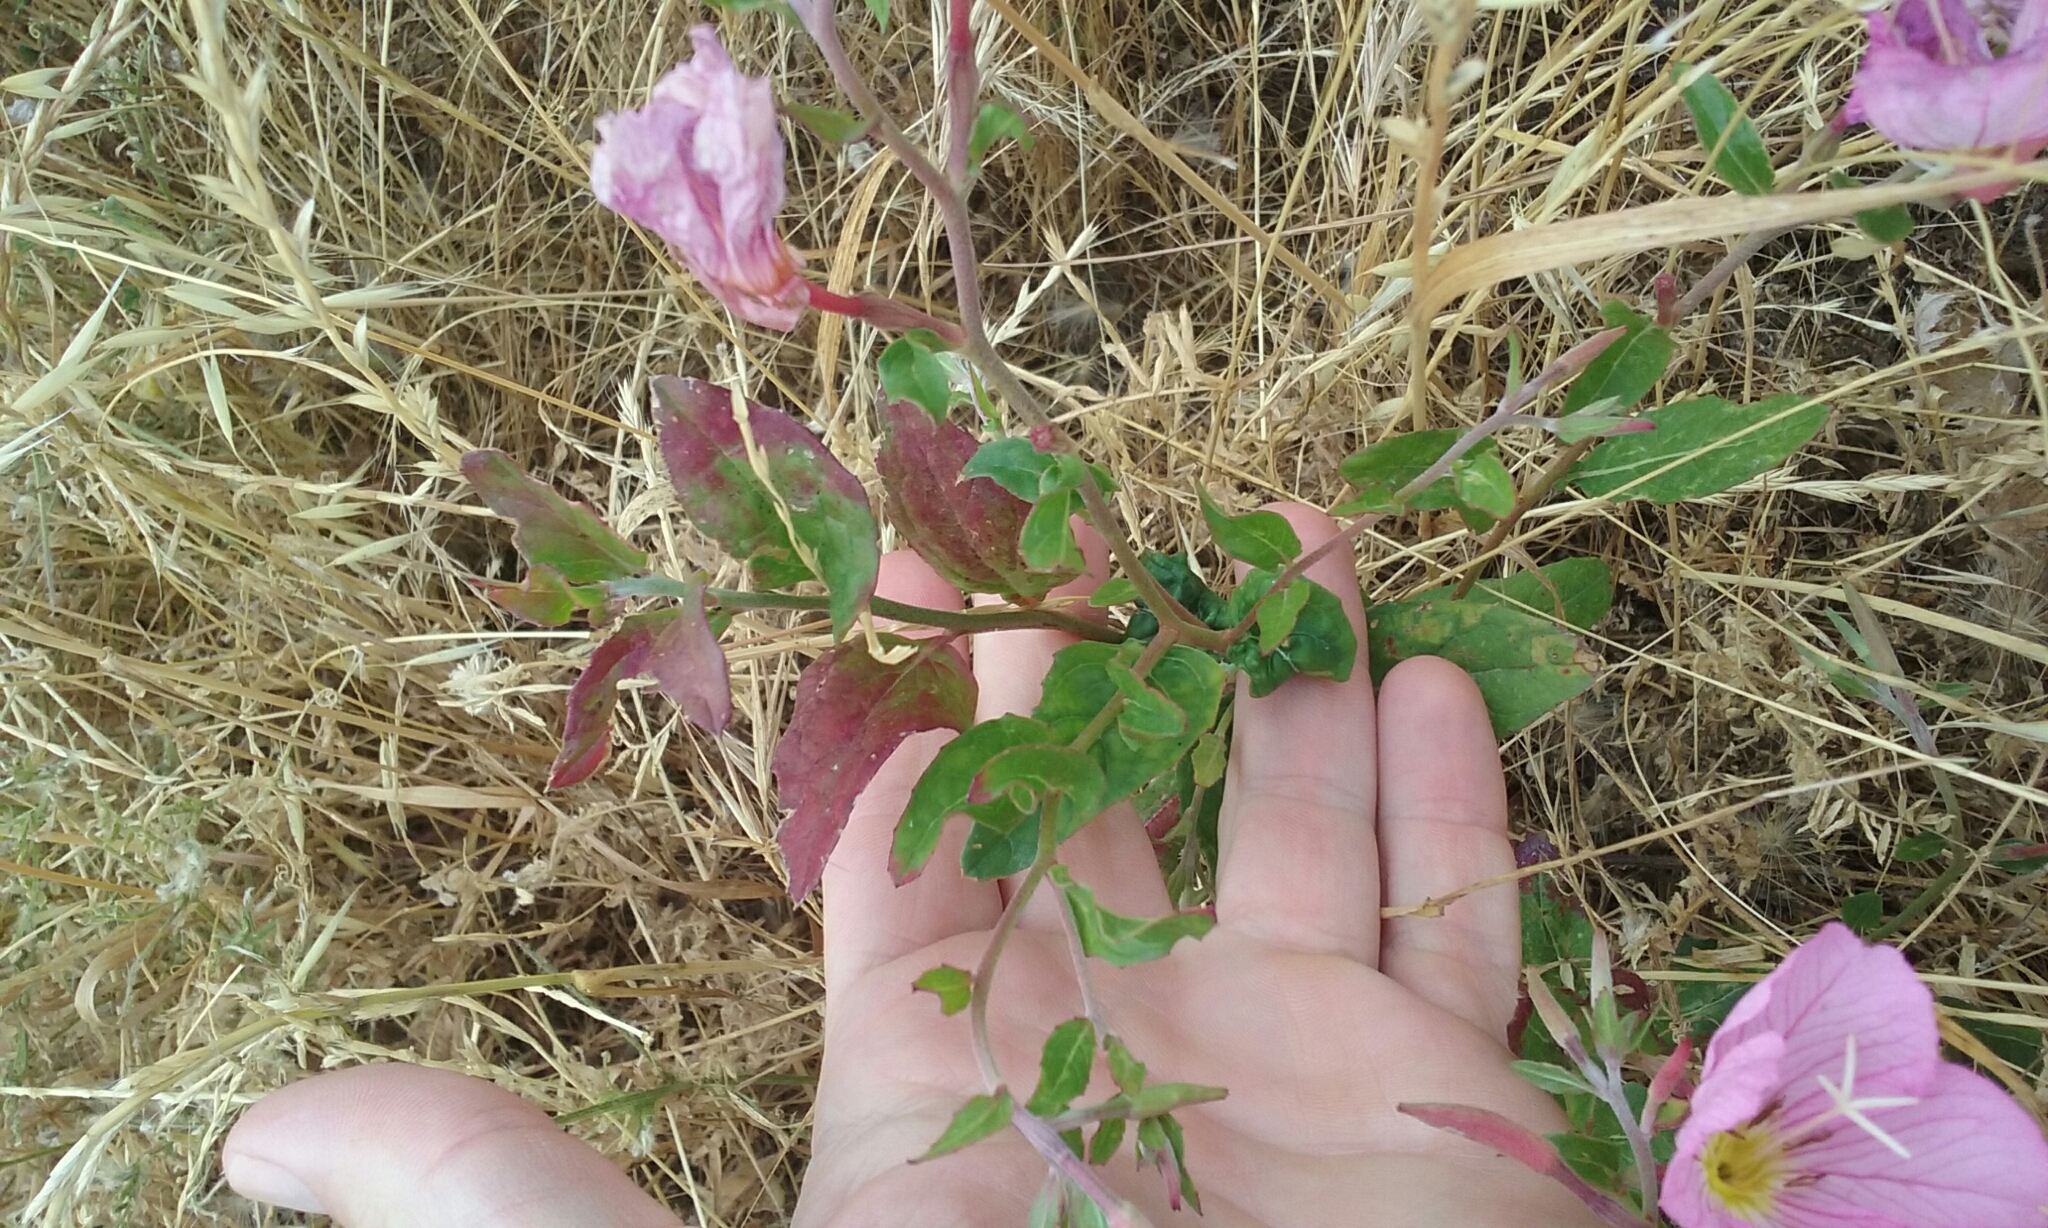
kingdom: Plantae
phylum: Tracheophyta
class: Magnoliopsida
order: Myrtales
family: Onagraceae
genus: Oenothera
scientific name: Oenothera speciosa
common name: White evening-primrose
